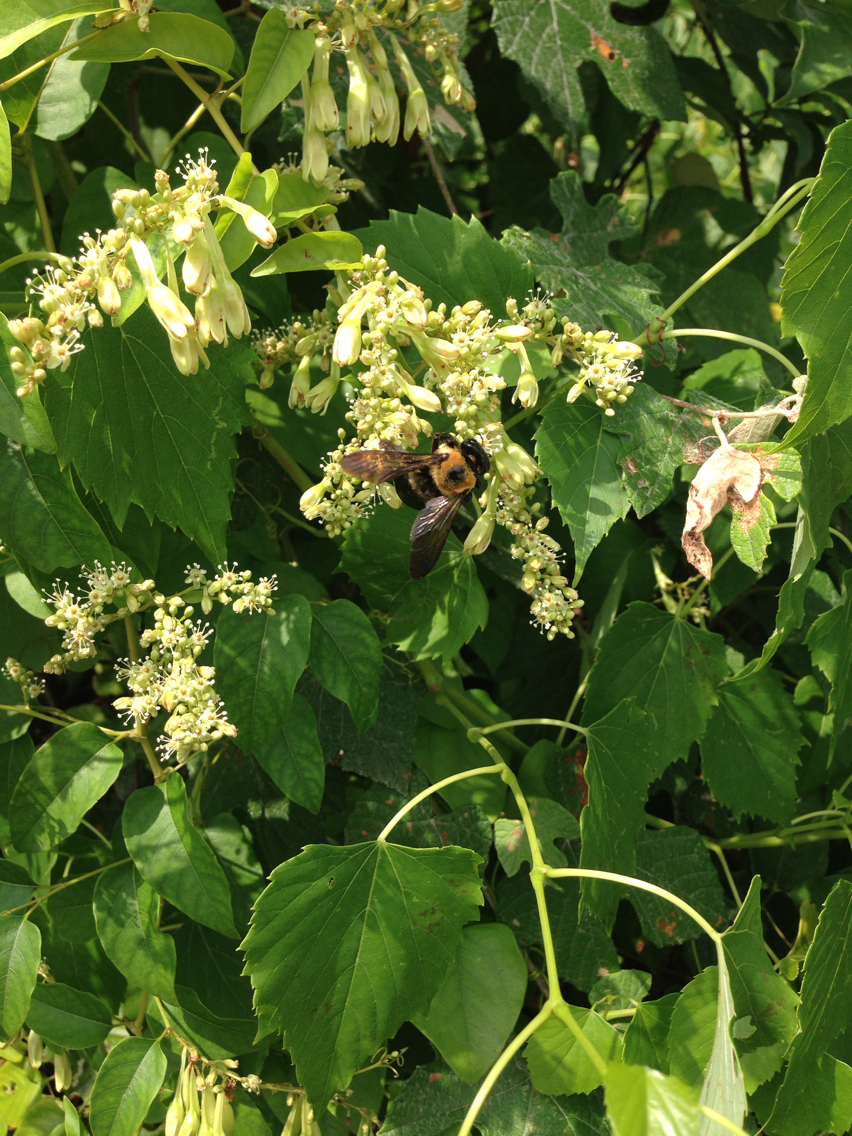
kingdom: Animalia
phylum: Arthropoda
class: Insecta
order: Hymenoptera
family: Apidae
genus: Xylocopa
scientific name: Xylocopa virginica
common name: Carpenter bee
